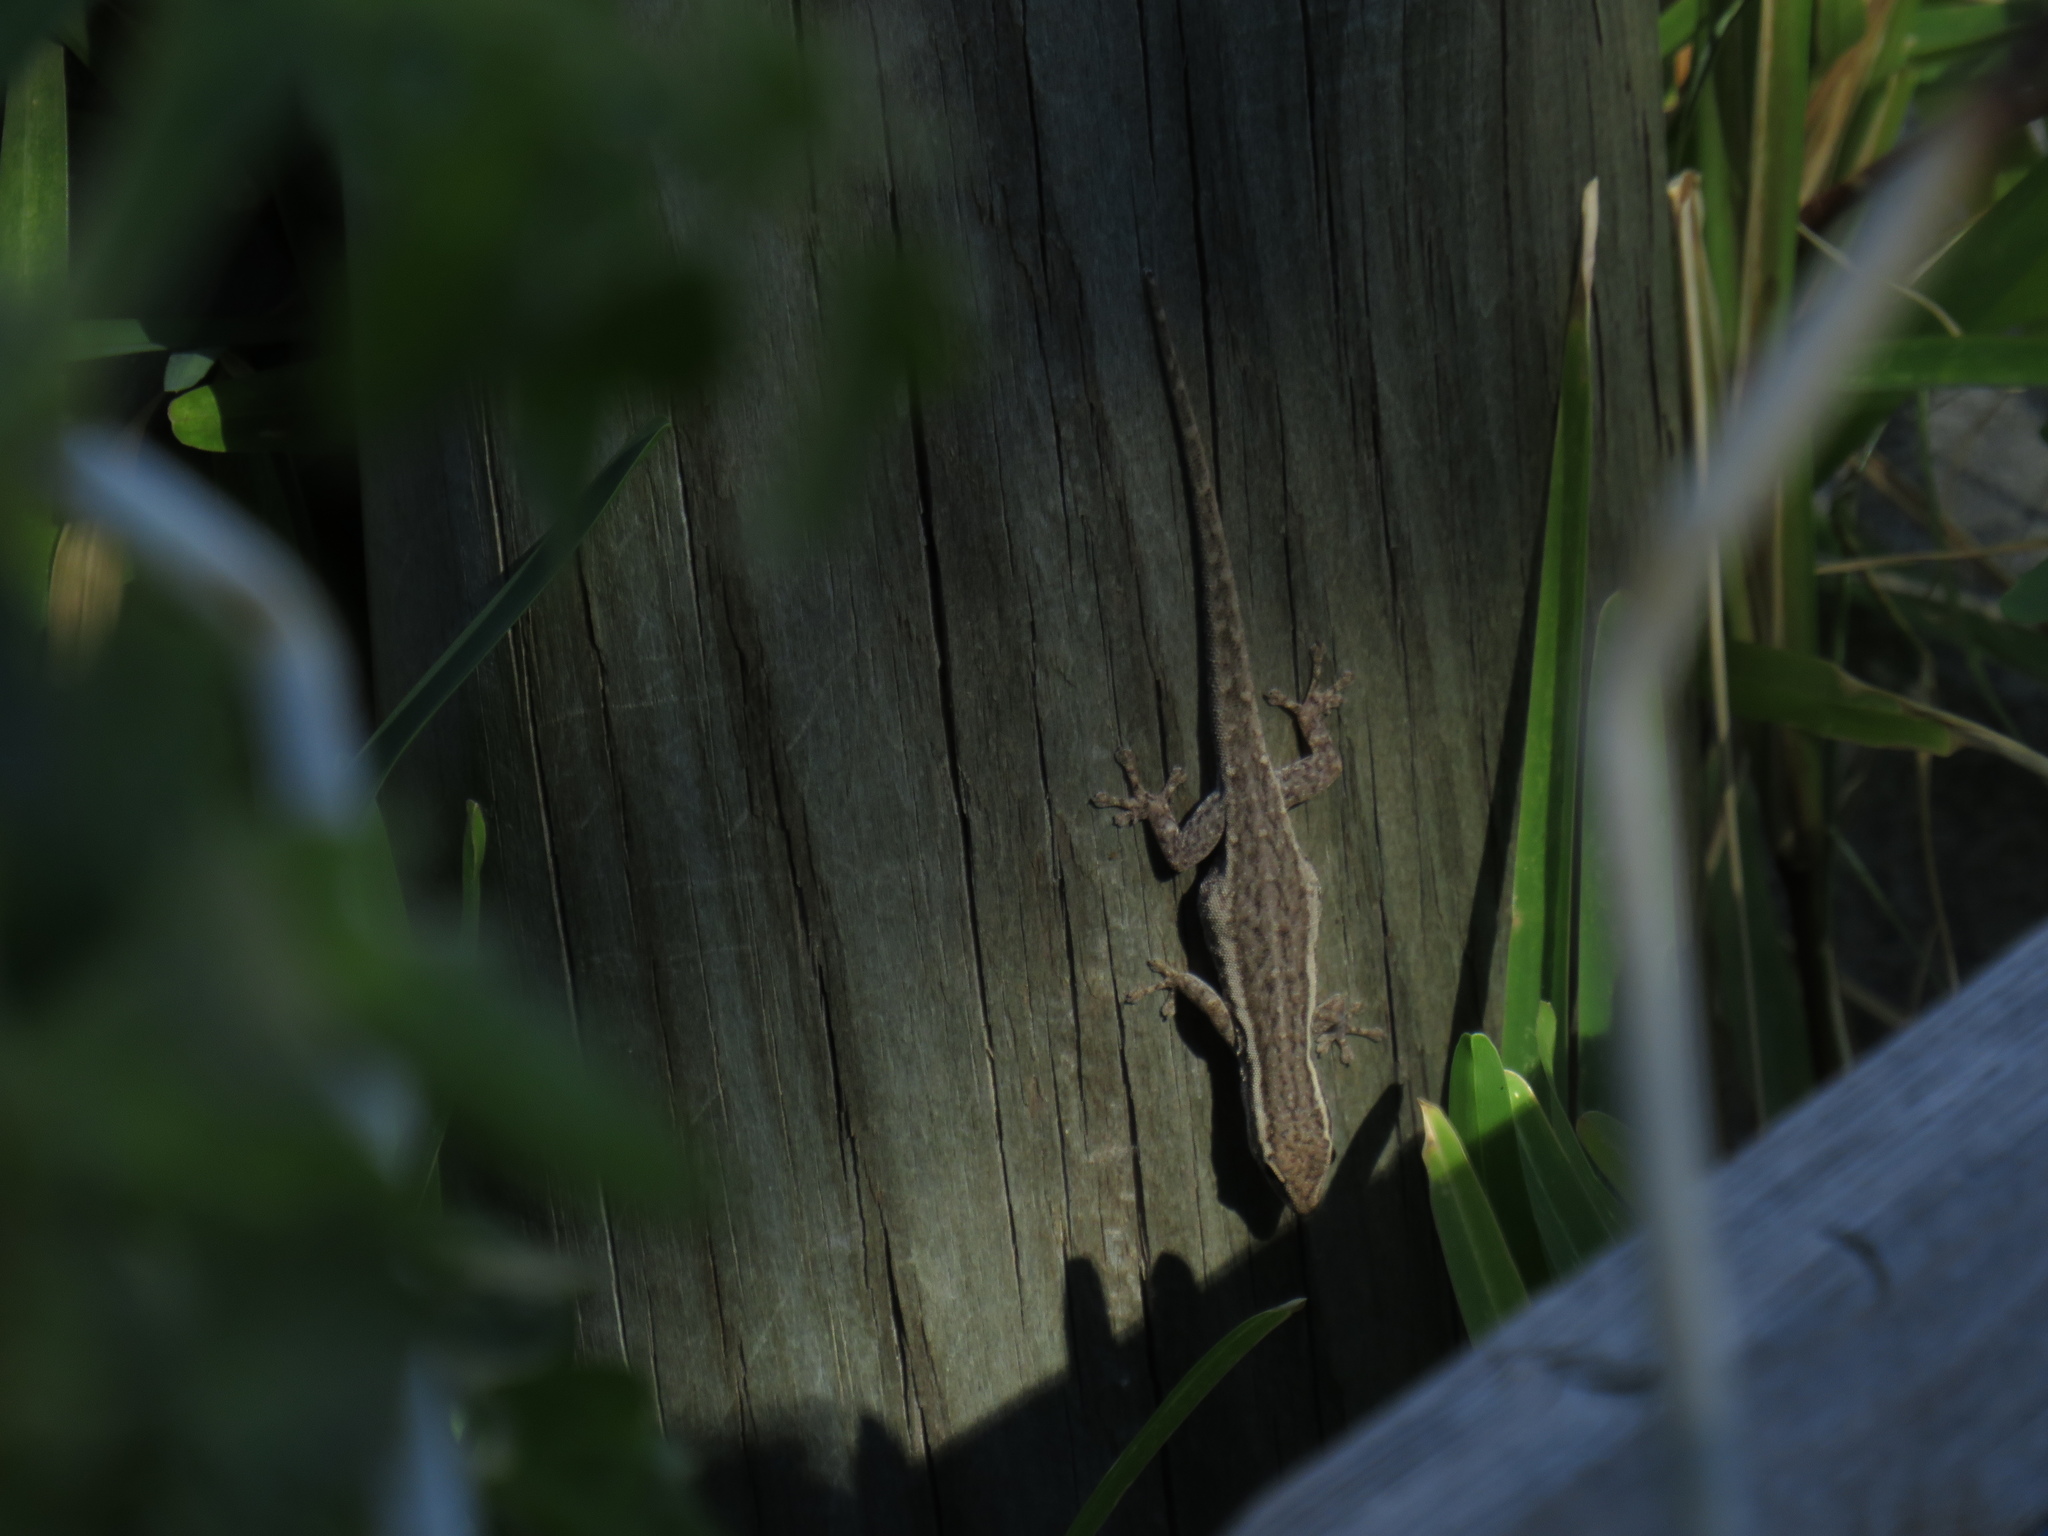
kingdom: Animalia
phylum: Chordata
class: Squamata
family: Gekkonidae
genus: Lygodactylus
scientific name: Lygodactylus capensis
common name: Cape dwarf gecko
